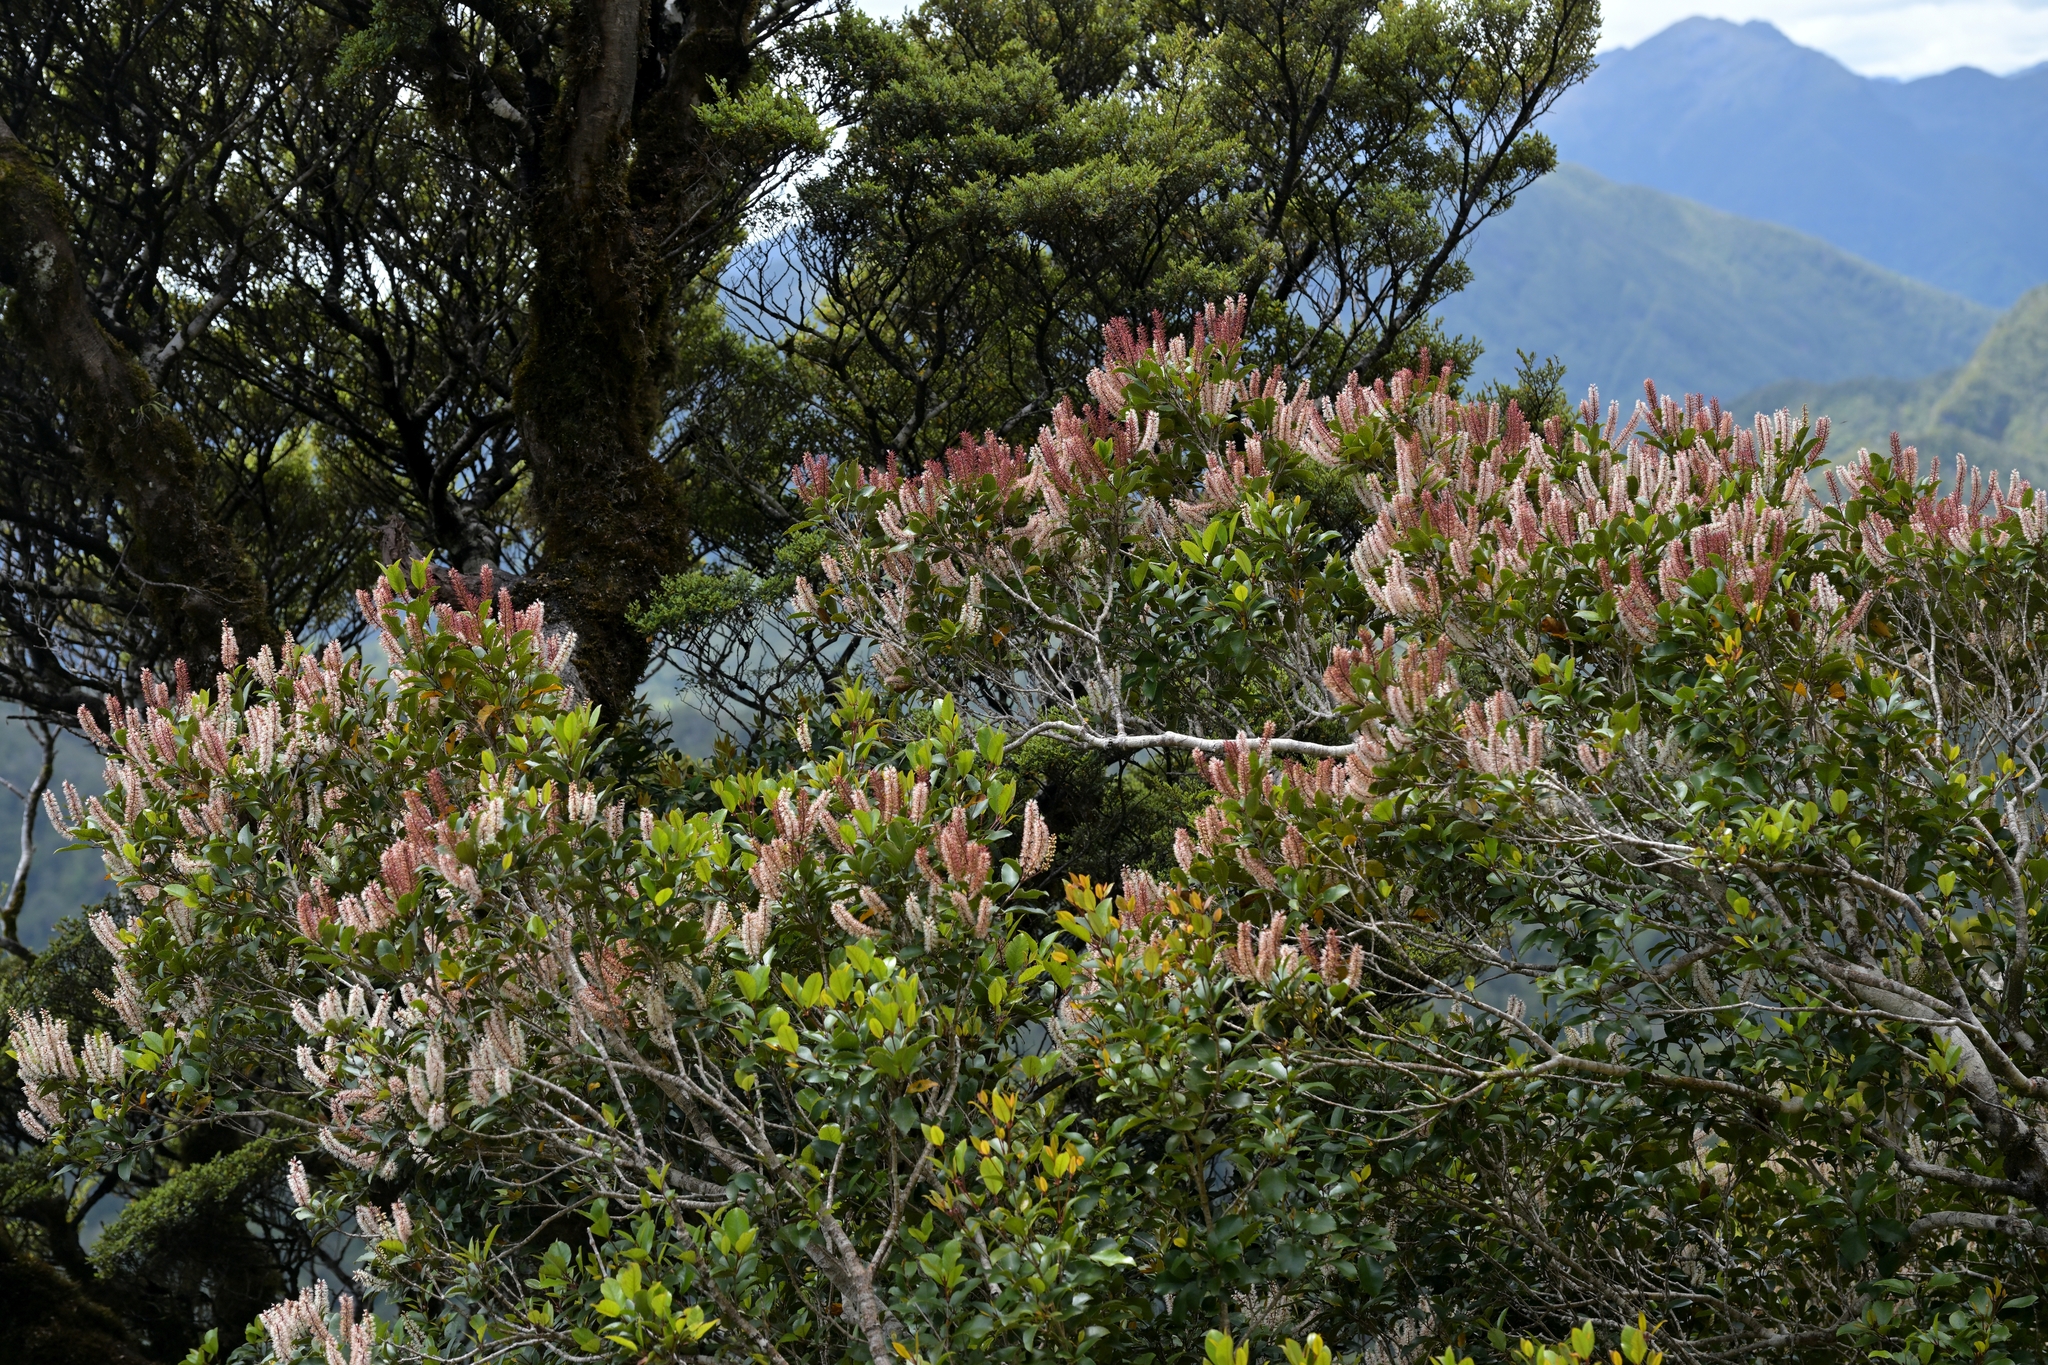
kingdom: Plantae
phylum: Tracheophyta
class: Magnoliopsida
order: Oxalidales
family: Cunoniaceae
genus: Pterophylla
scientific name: Pterophylla racemosa
